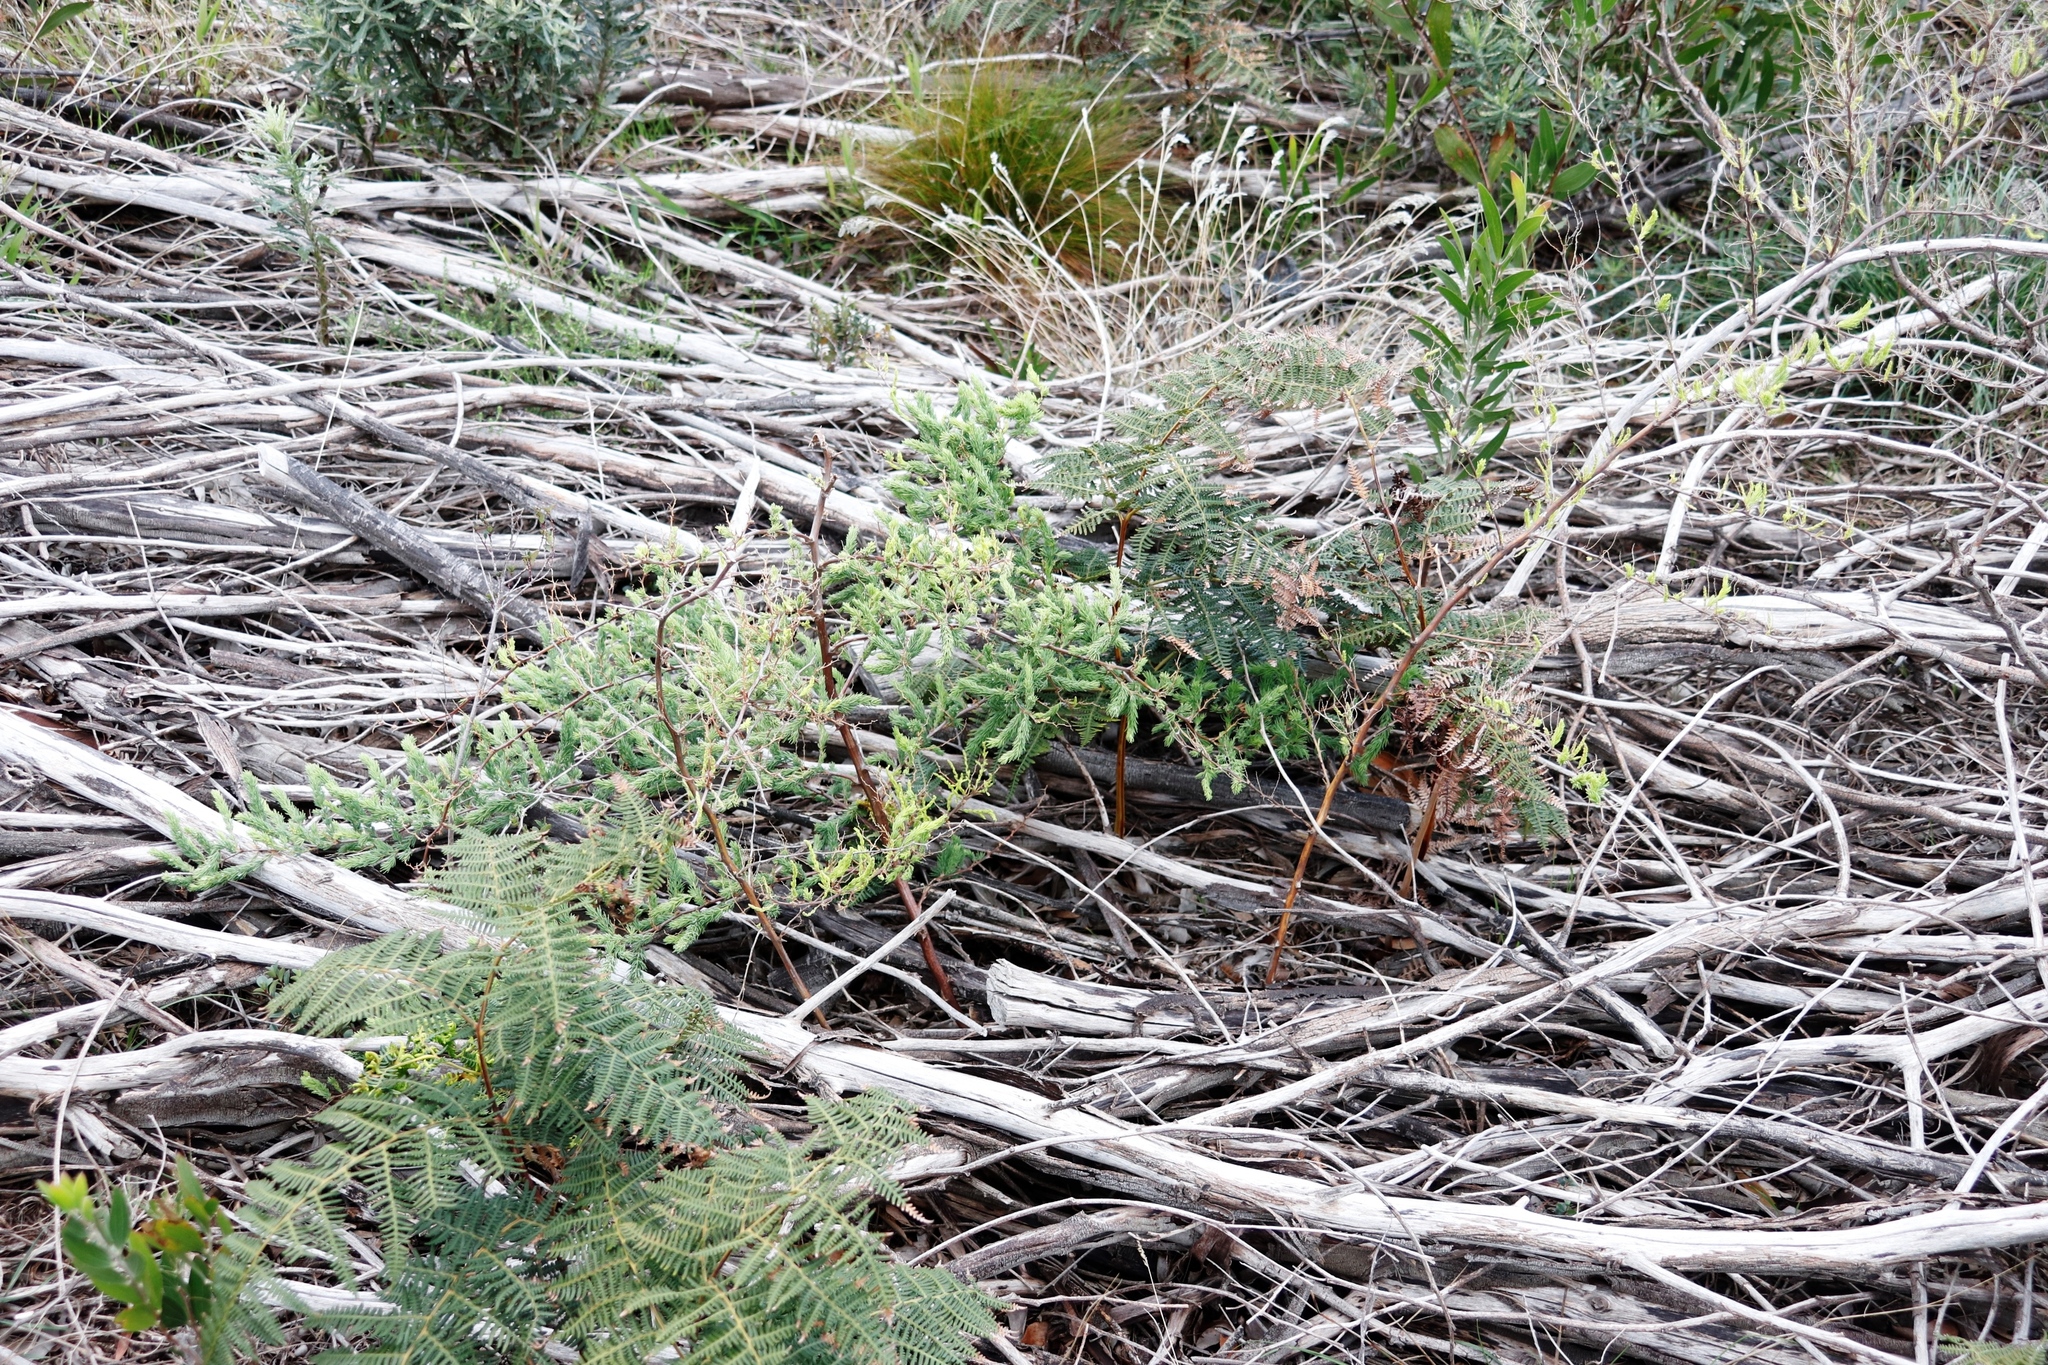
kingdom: Plantae
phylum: Tracheophyta
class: Liliopsida
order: Asparagales
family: Asparagaceae
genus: Asparagus
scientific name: Asparagus rubicundus
